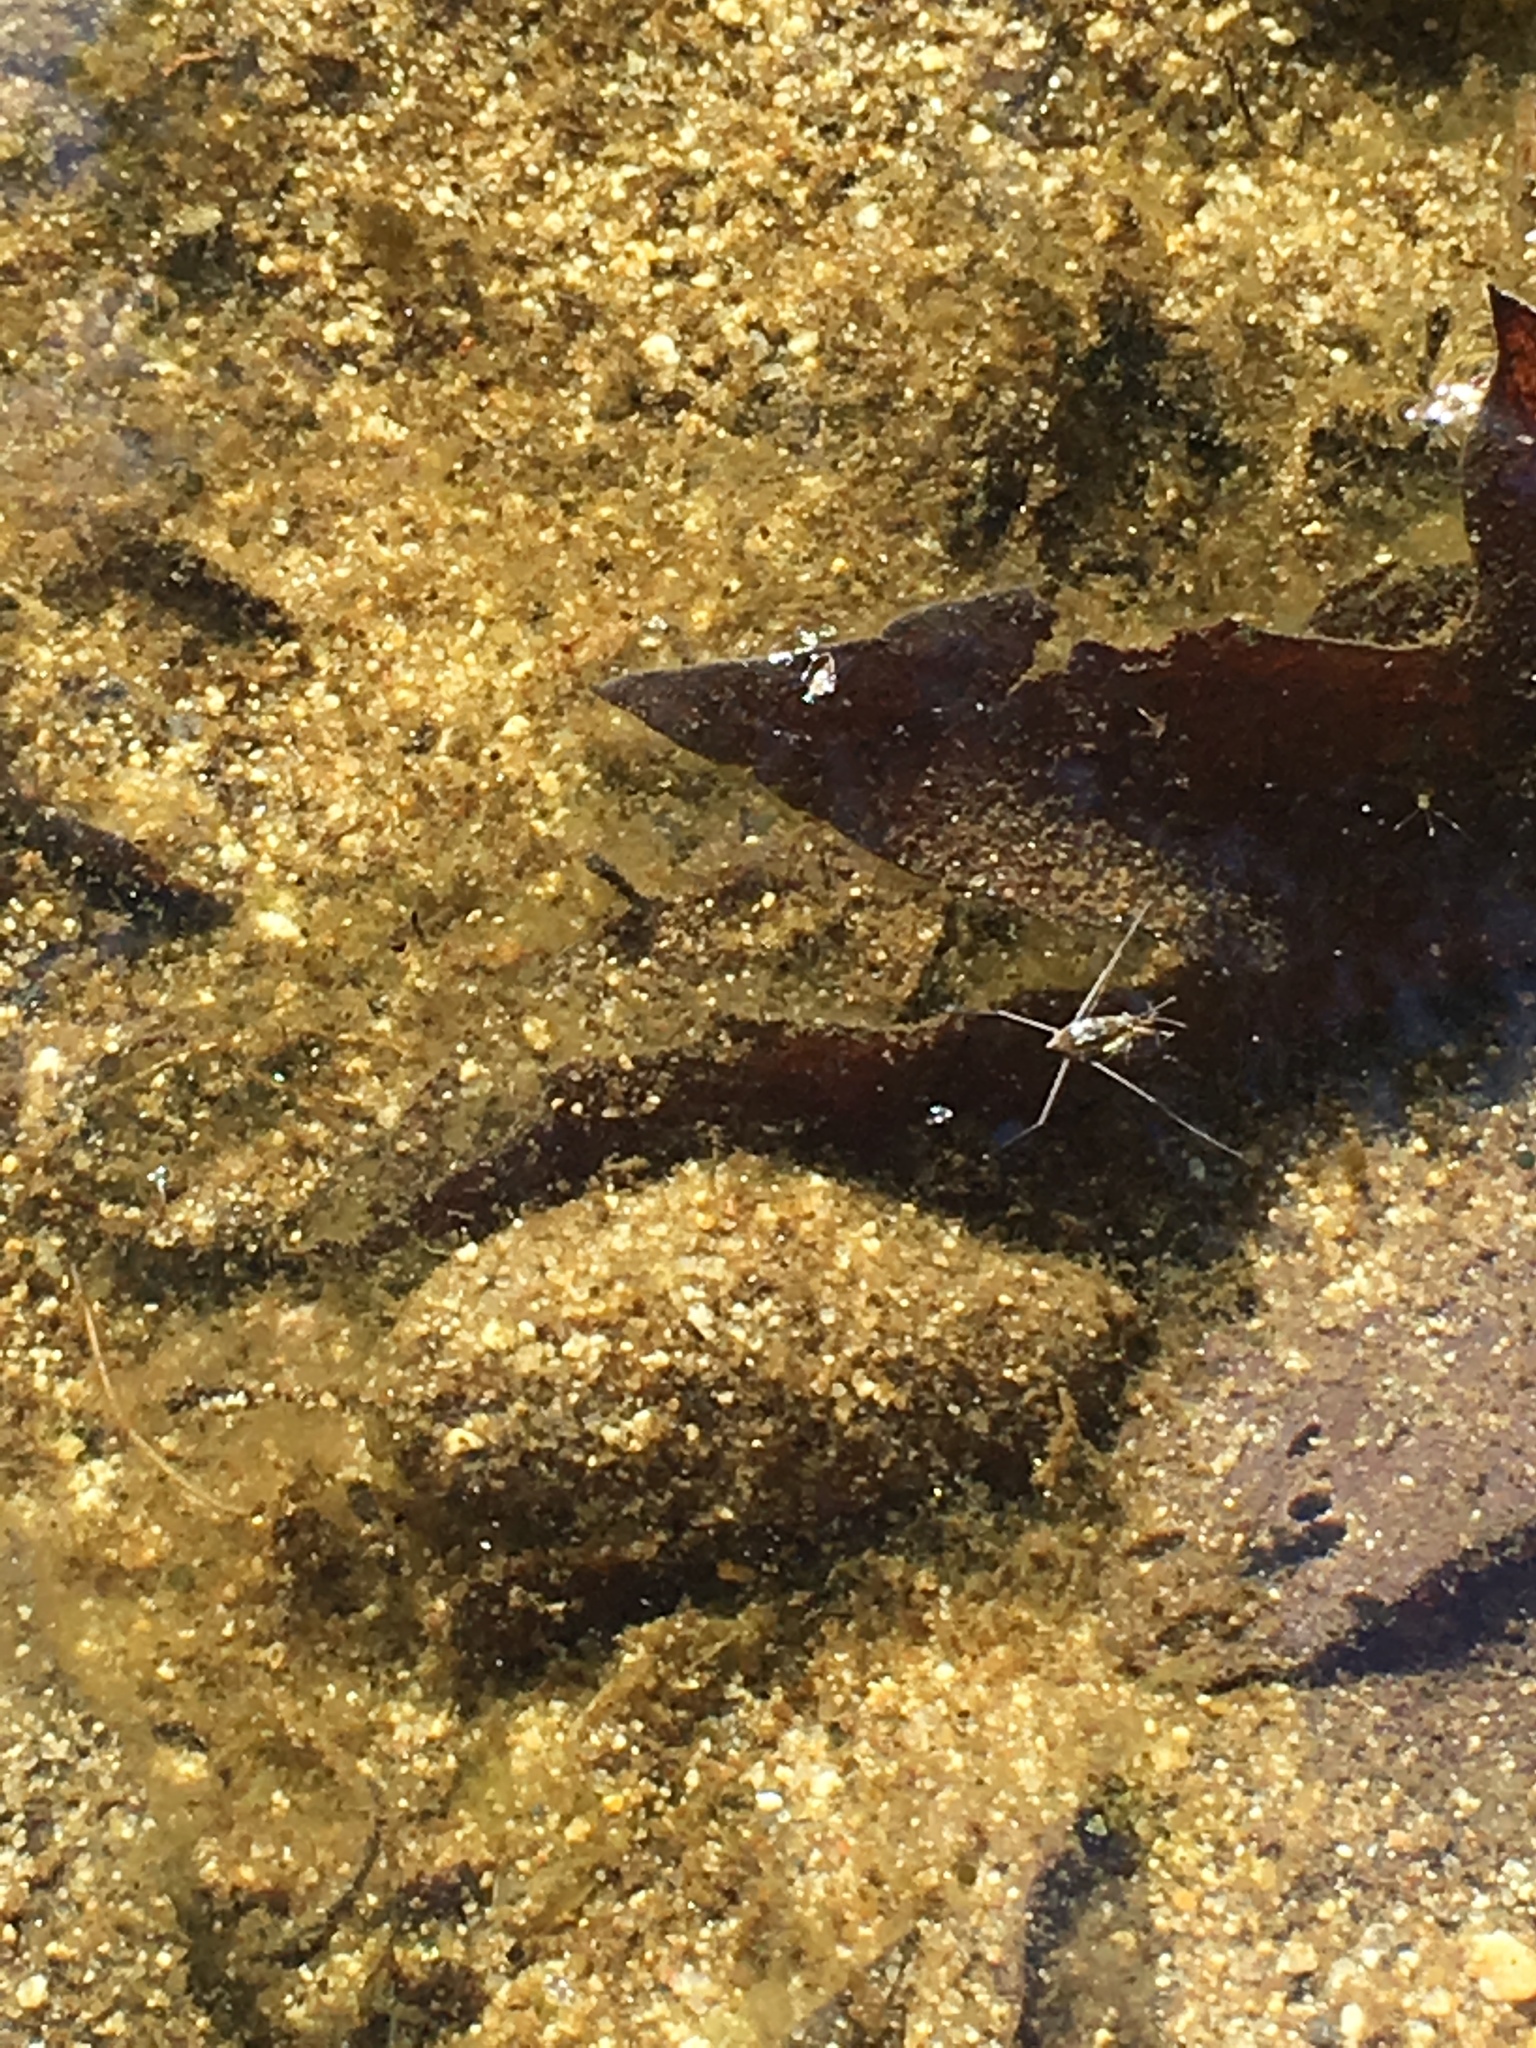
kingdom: Animalia
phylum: Arthropoda
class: Insecta
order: Hemiptera
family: Gerridae
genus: Aquarius
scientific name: Aquarius remigis
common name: Common water strider
